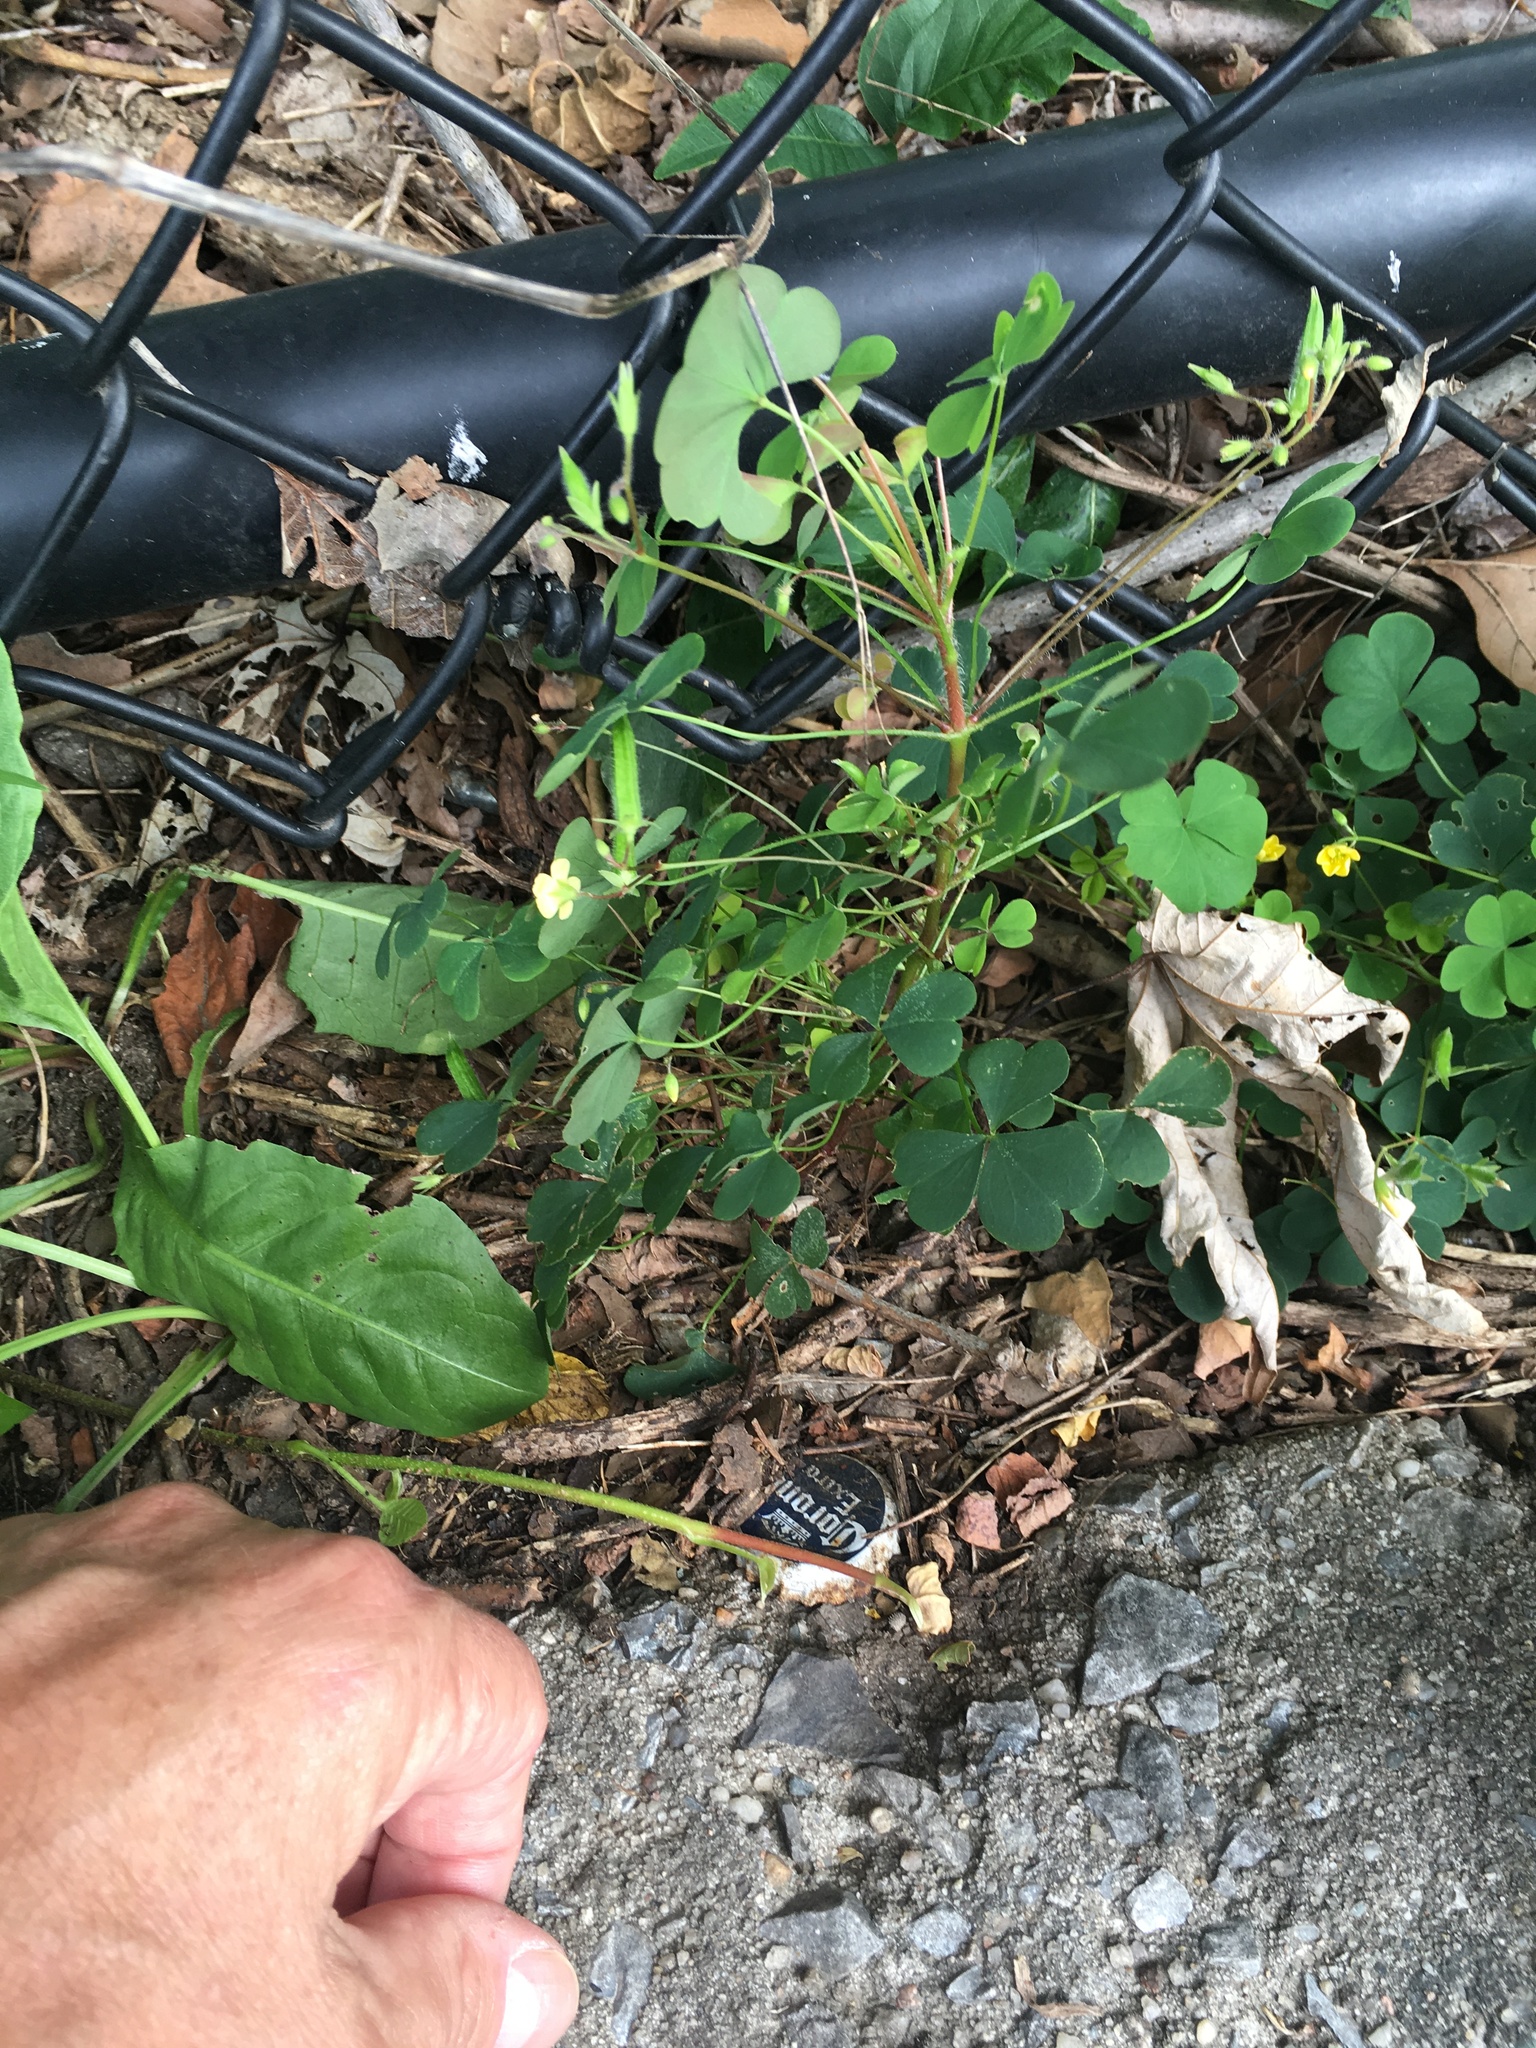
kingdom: Plantae
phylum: Tracheophyta
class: Magnoliopsida
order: Oxalidales
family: Oxalidaceae
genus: Oxalis
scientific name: Oxalis stricta
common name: Upright yellow-sorrel
